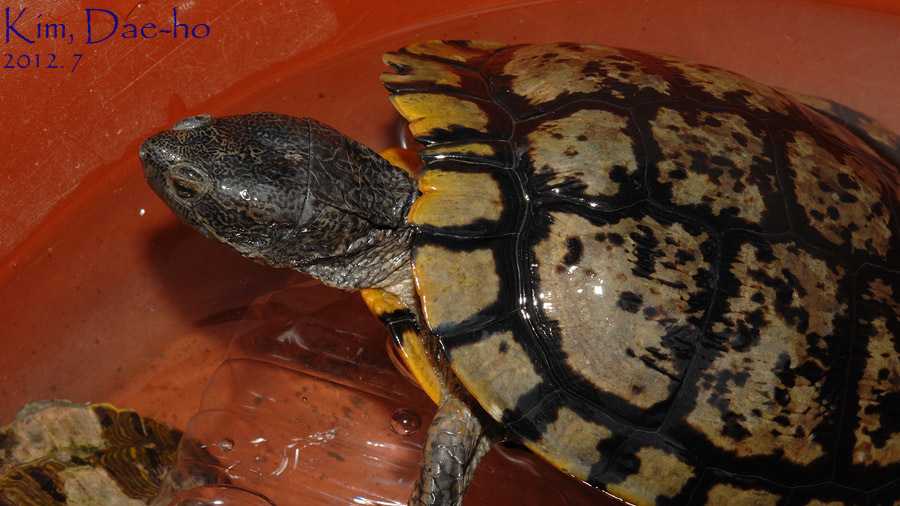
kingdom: Animalia
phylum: Chordata
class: Testudines
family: Emydidae
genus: Trachemys
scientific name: Trachemys scripta
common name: Slider
